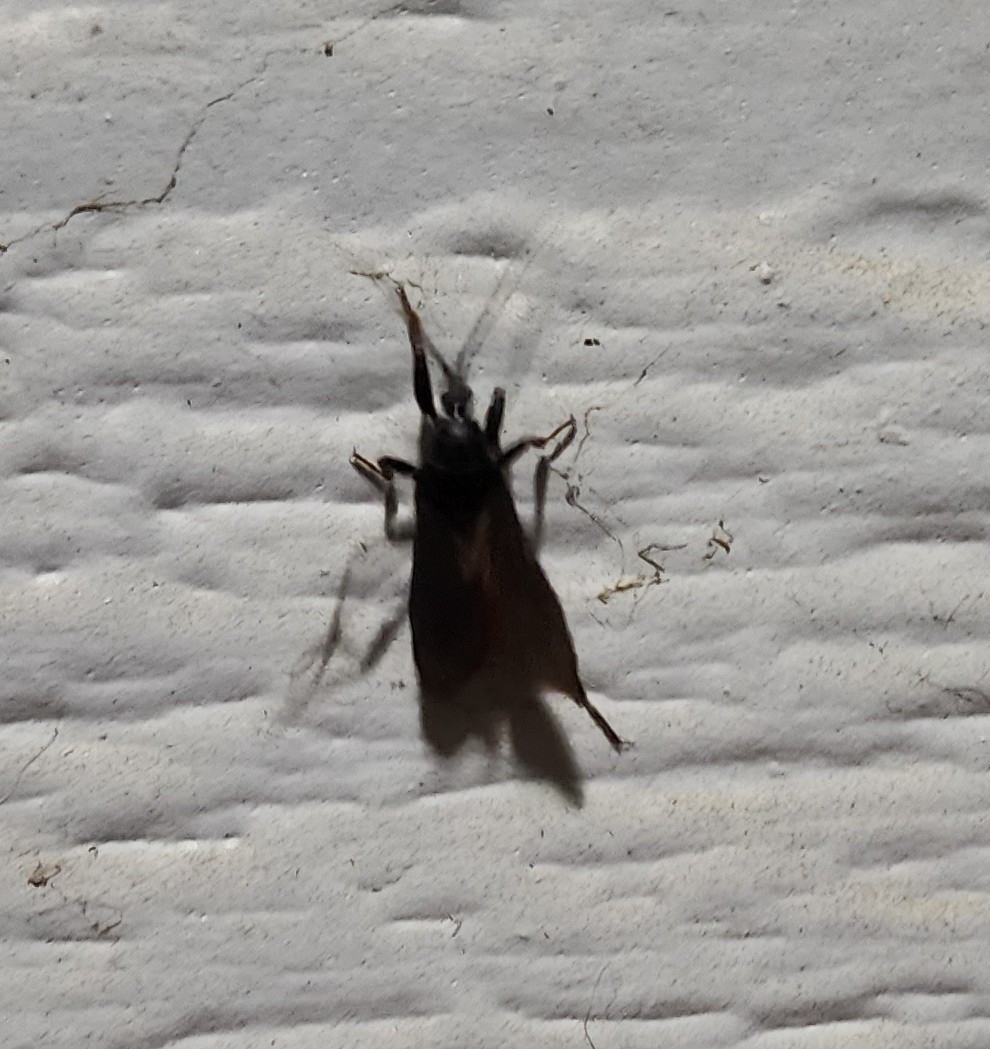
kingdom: Animalia
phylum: Arthropoda
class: Insecta
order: Hemiptera
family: Reduviidae
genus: Melanolestes
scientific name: Melanolestes picipes
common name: Assassin bug
